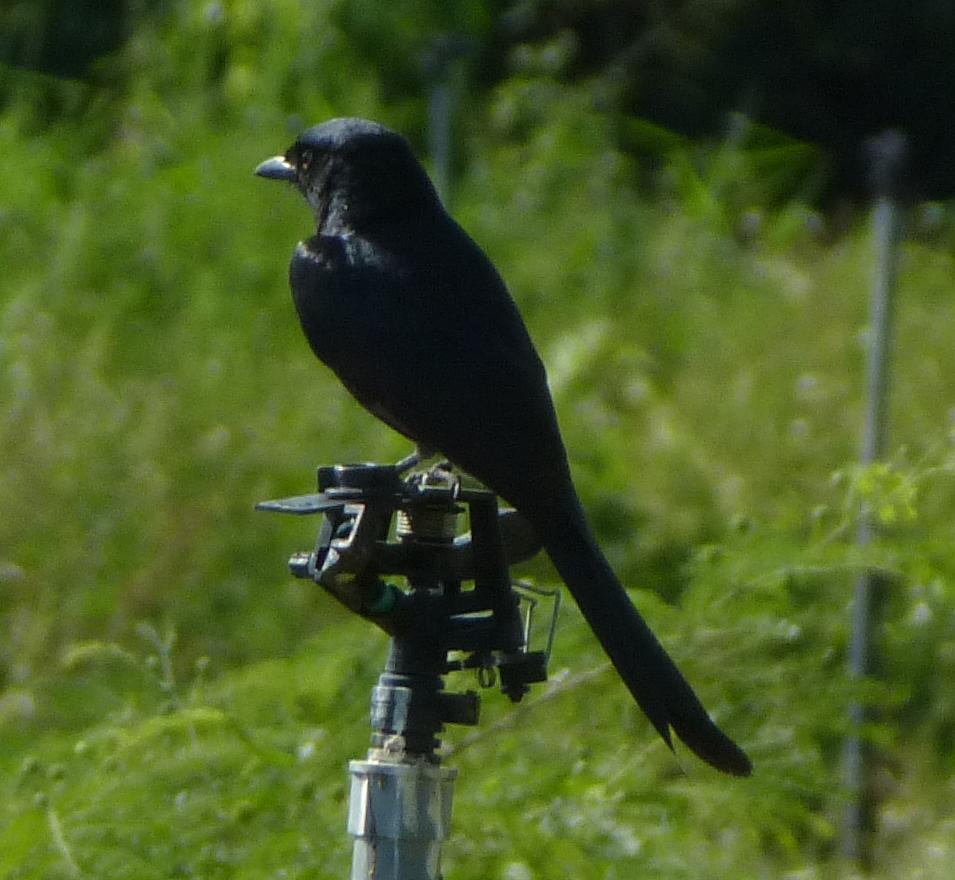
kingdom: Animalia
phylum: Chordata
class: Aves
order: Passeriformes
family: Dicruridae
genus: Dicrurus
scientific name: Dicrurus macrocercus
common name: Black drongo
